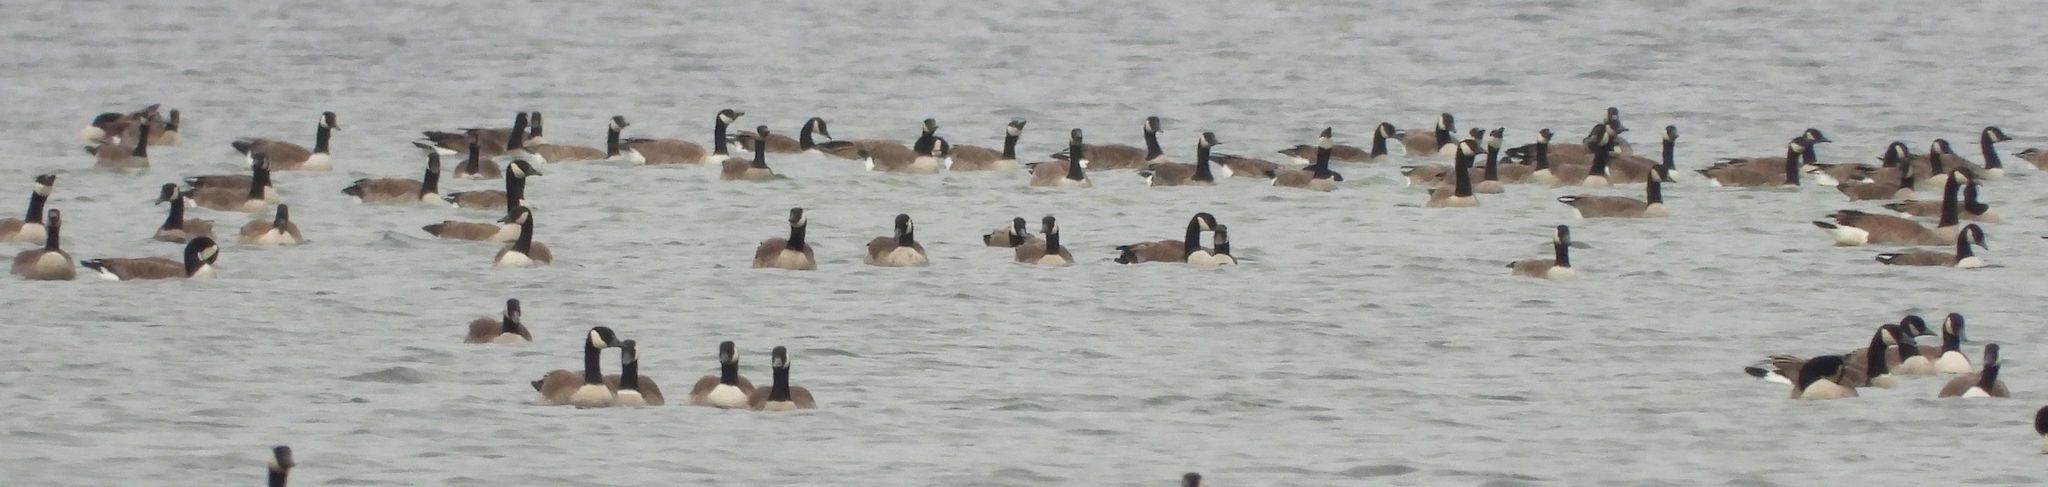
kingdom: Animalia
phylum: Chordata
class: Aves
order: Anseriformes
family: Anatidae
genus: Branta
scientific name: Branta canadensis
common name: Canada goose
